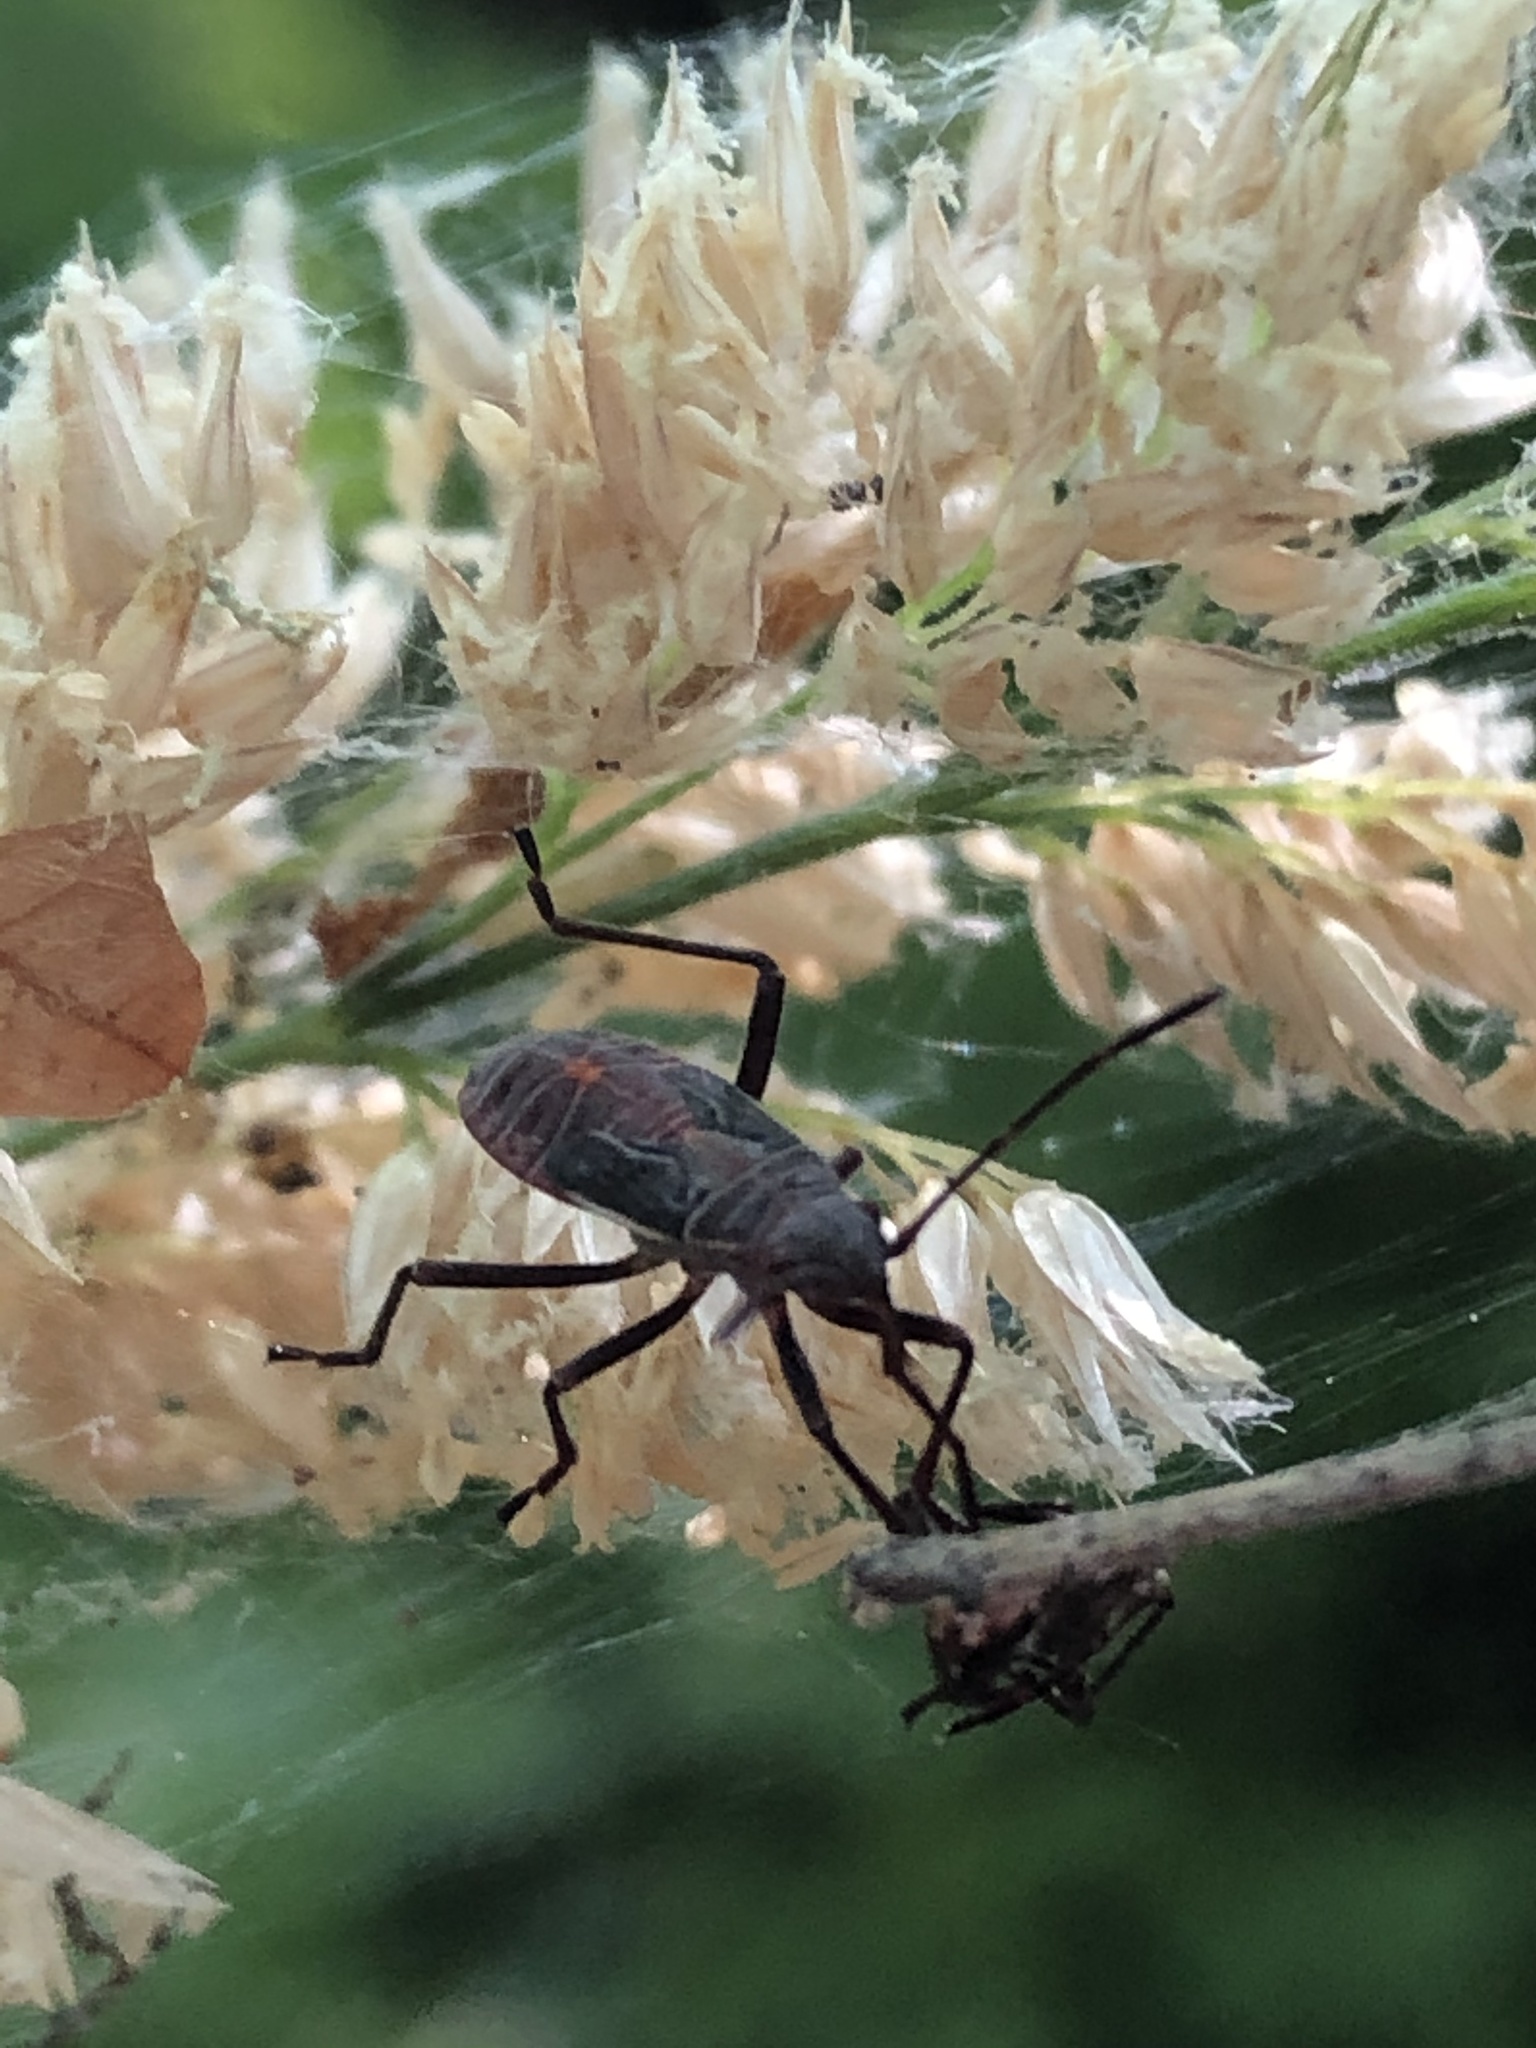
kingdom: Animalia
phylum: Arthropoda
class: Insecta
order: Hemiptera
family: Rhopalidae
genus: Boisea
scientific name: Boisea rubrolineata
